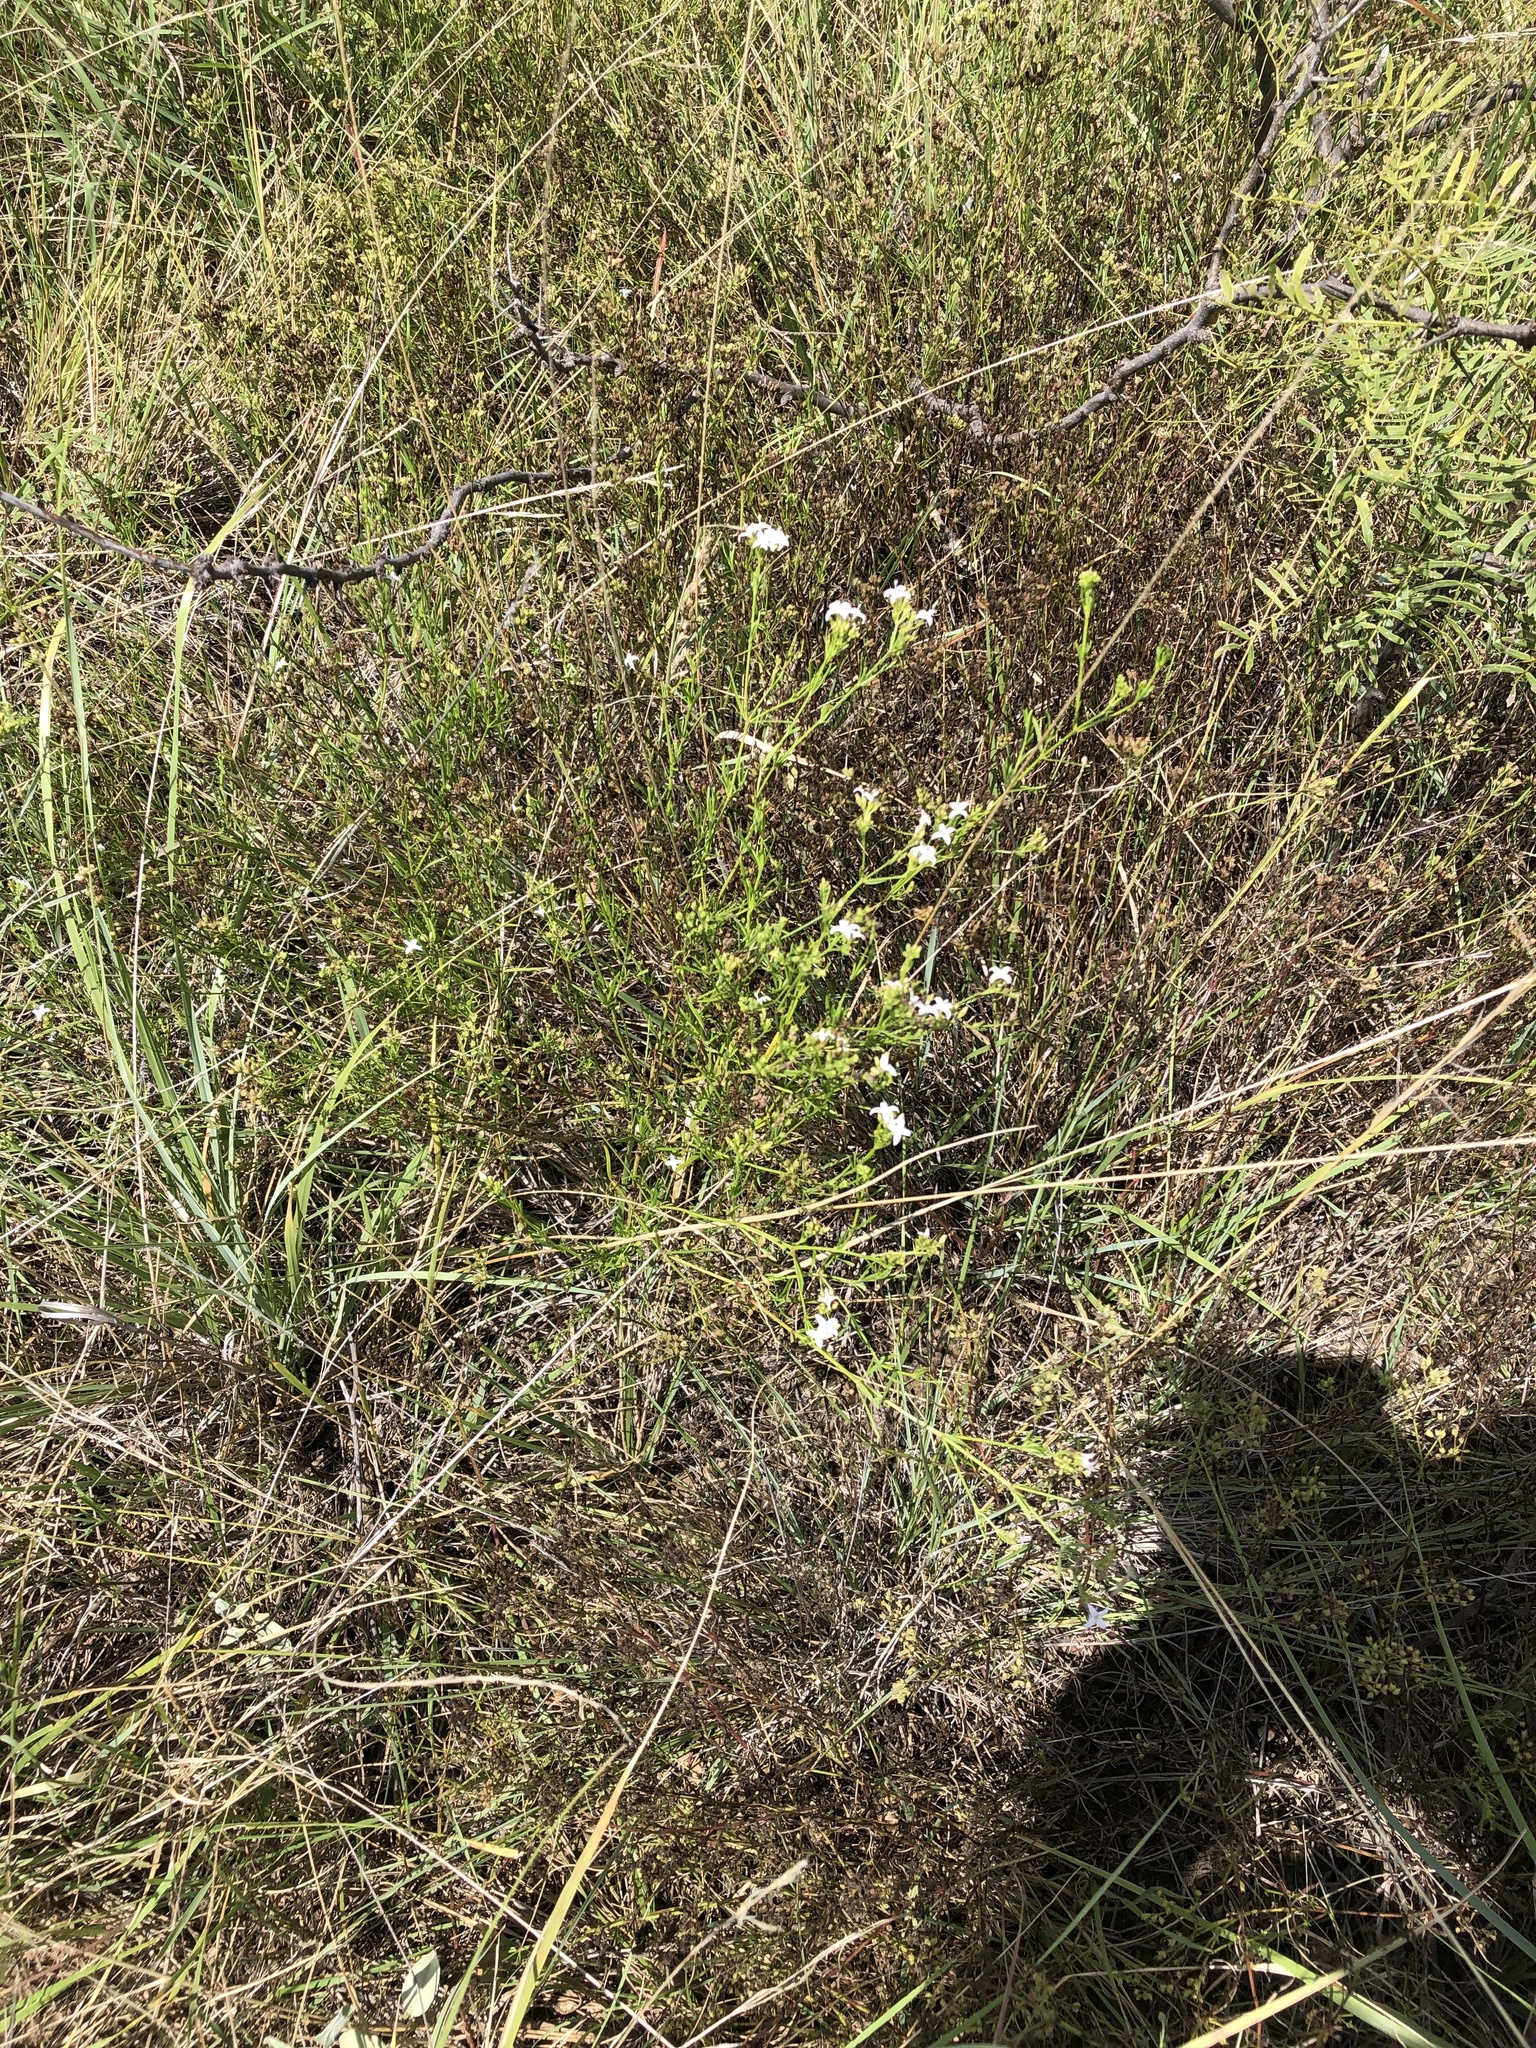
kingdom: Plantae
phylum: Tracheophyta
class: Magnoliopsida
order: Gentianales
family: Rubiaceae
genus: Stenaria
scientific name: Stenaria nigricans
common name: Diamondflowers
